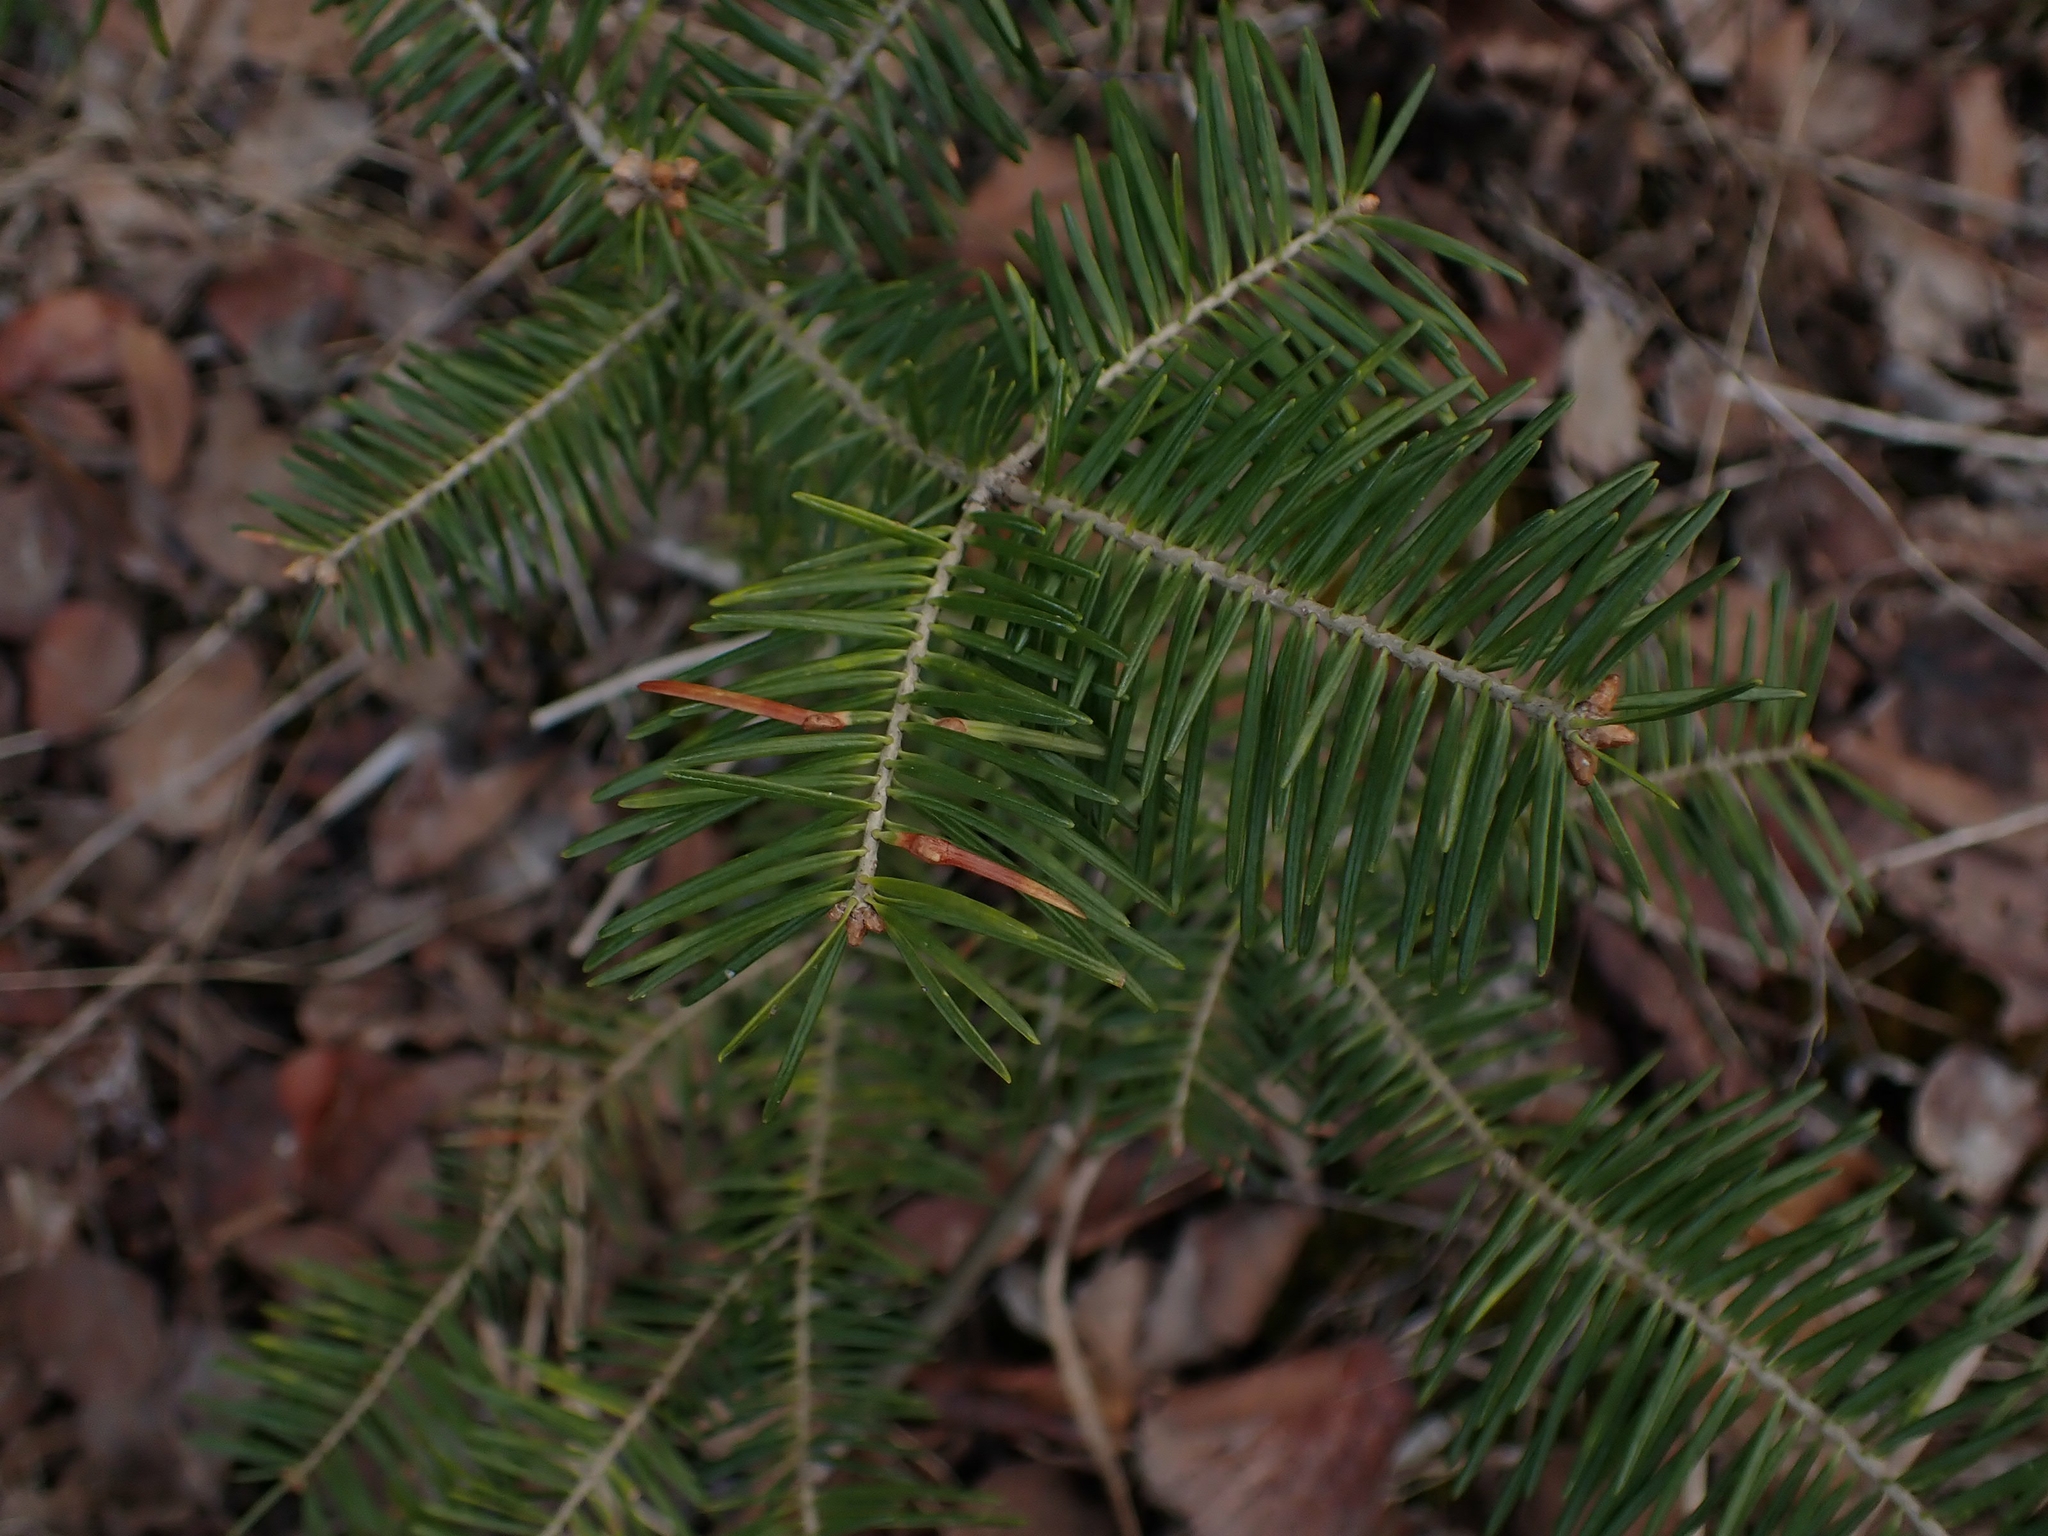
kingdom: Plantae
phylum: Tracheophyta
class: Pinopsida
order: Pinales
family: Pinaceae
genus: Abies
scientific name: Abies balsamea
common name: Balsam fir
